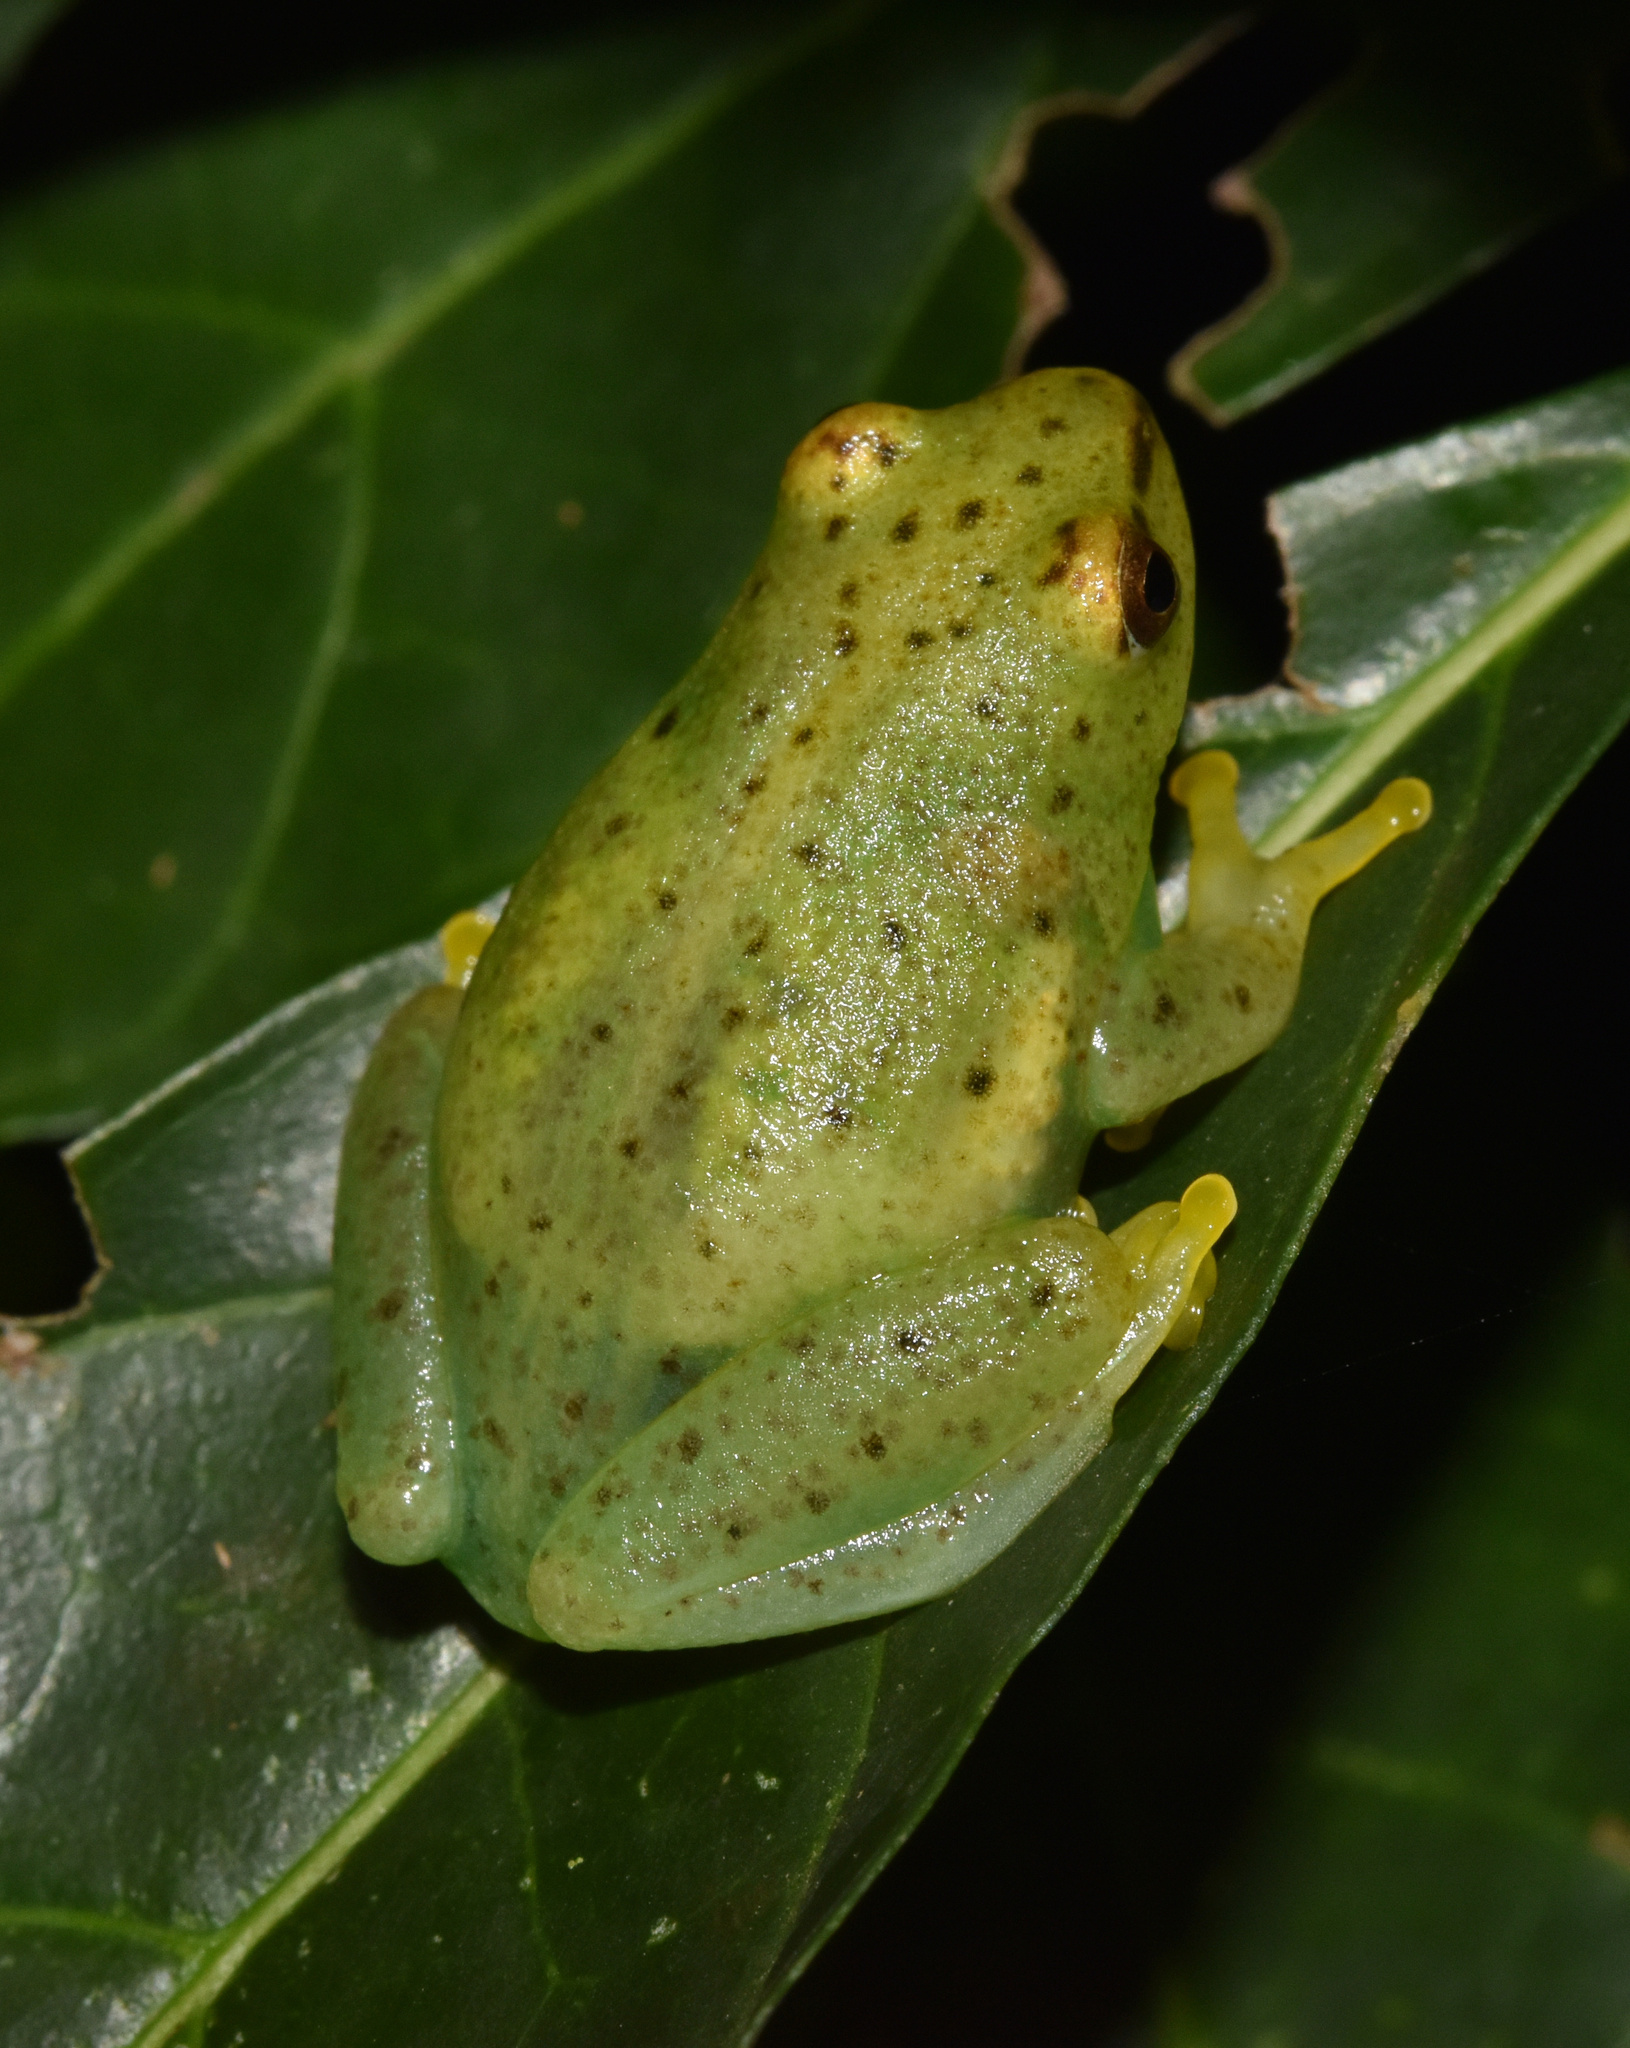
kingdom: Animalia
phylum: Chordata
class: Amphibia
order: Anura
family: Hyperoliidae
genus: Hyperolius
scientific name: Hyperolius pusillus
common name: Water lily reed frog
